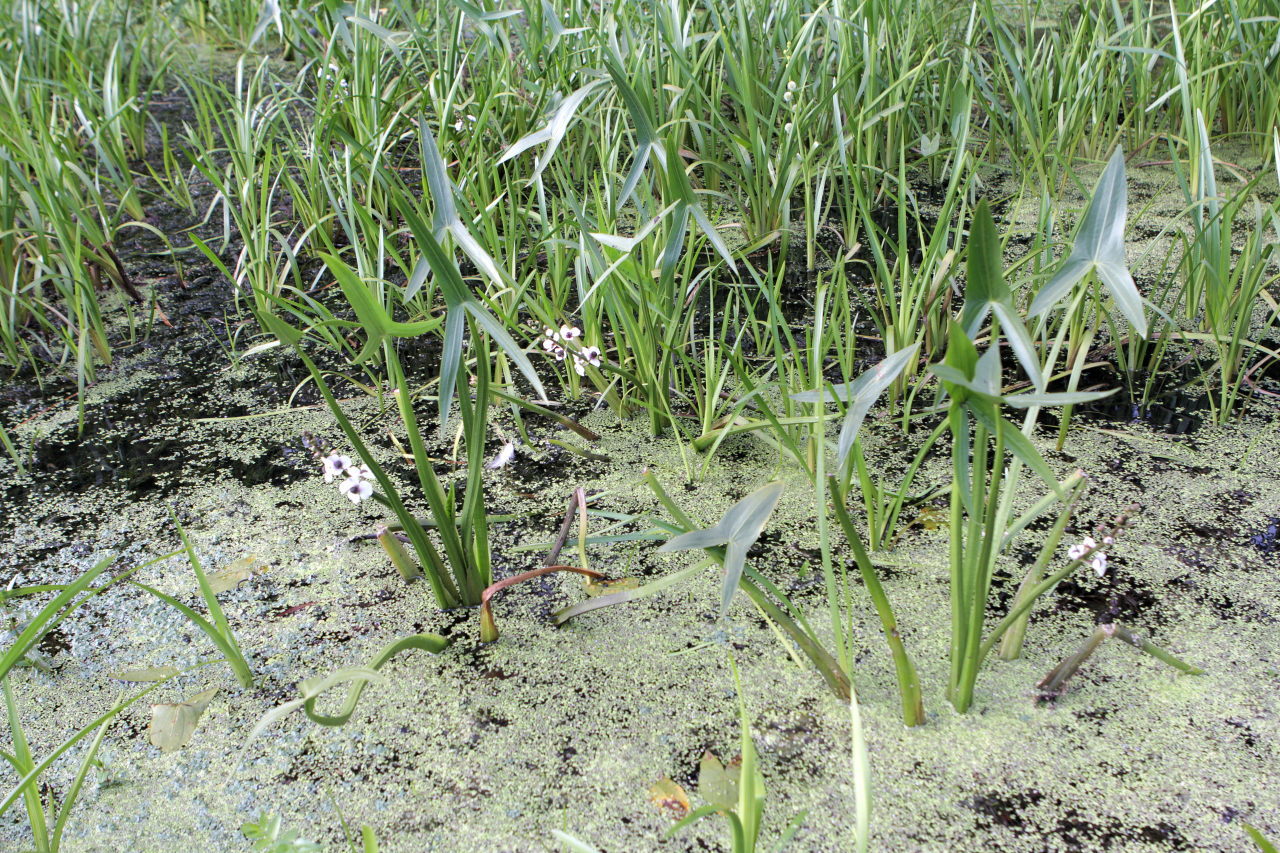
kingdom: Plantae
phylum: Tracheophyta
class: Liliopsida
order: Alismatales
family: Alismataceae
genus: Sagittaria
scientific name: Sagittaria sagittifolia
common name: Arrowhead
